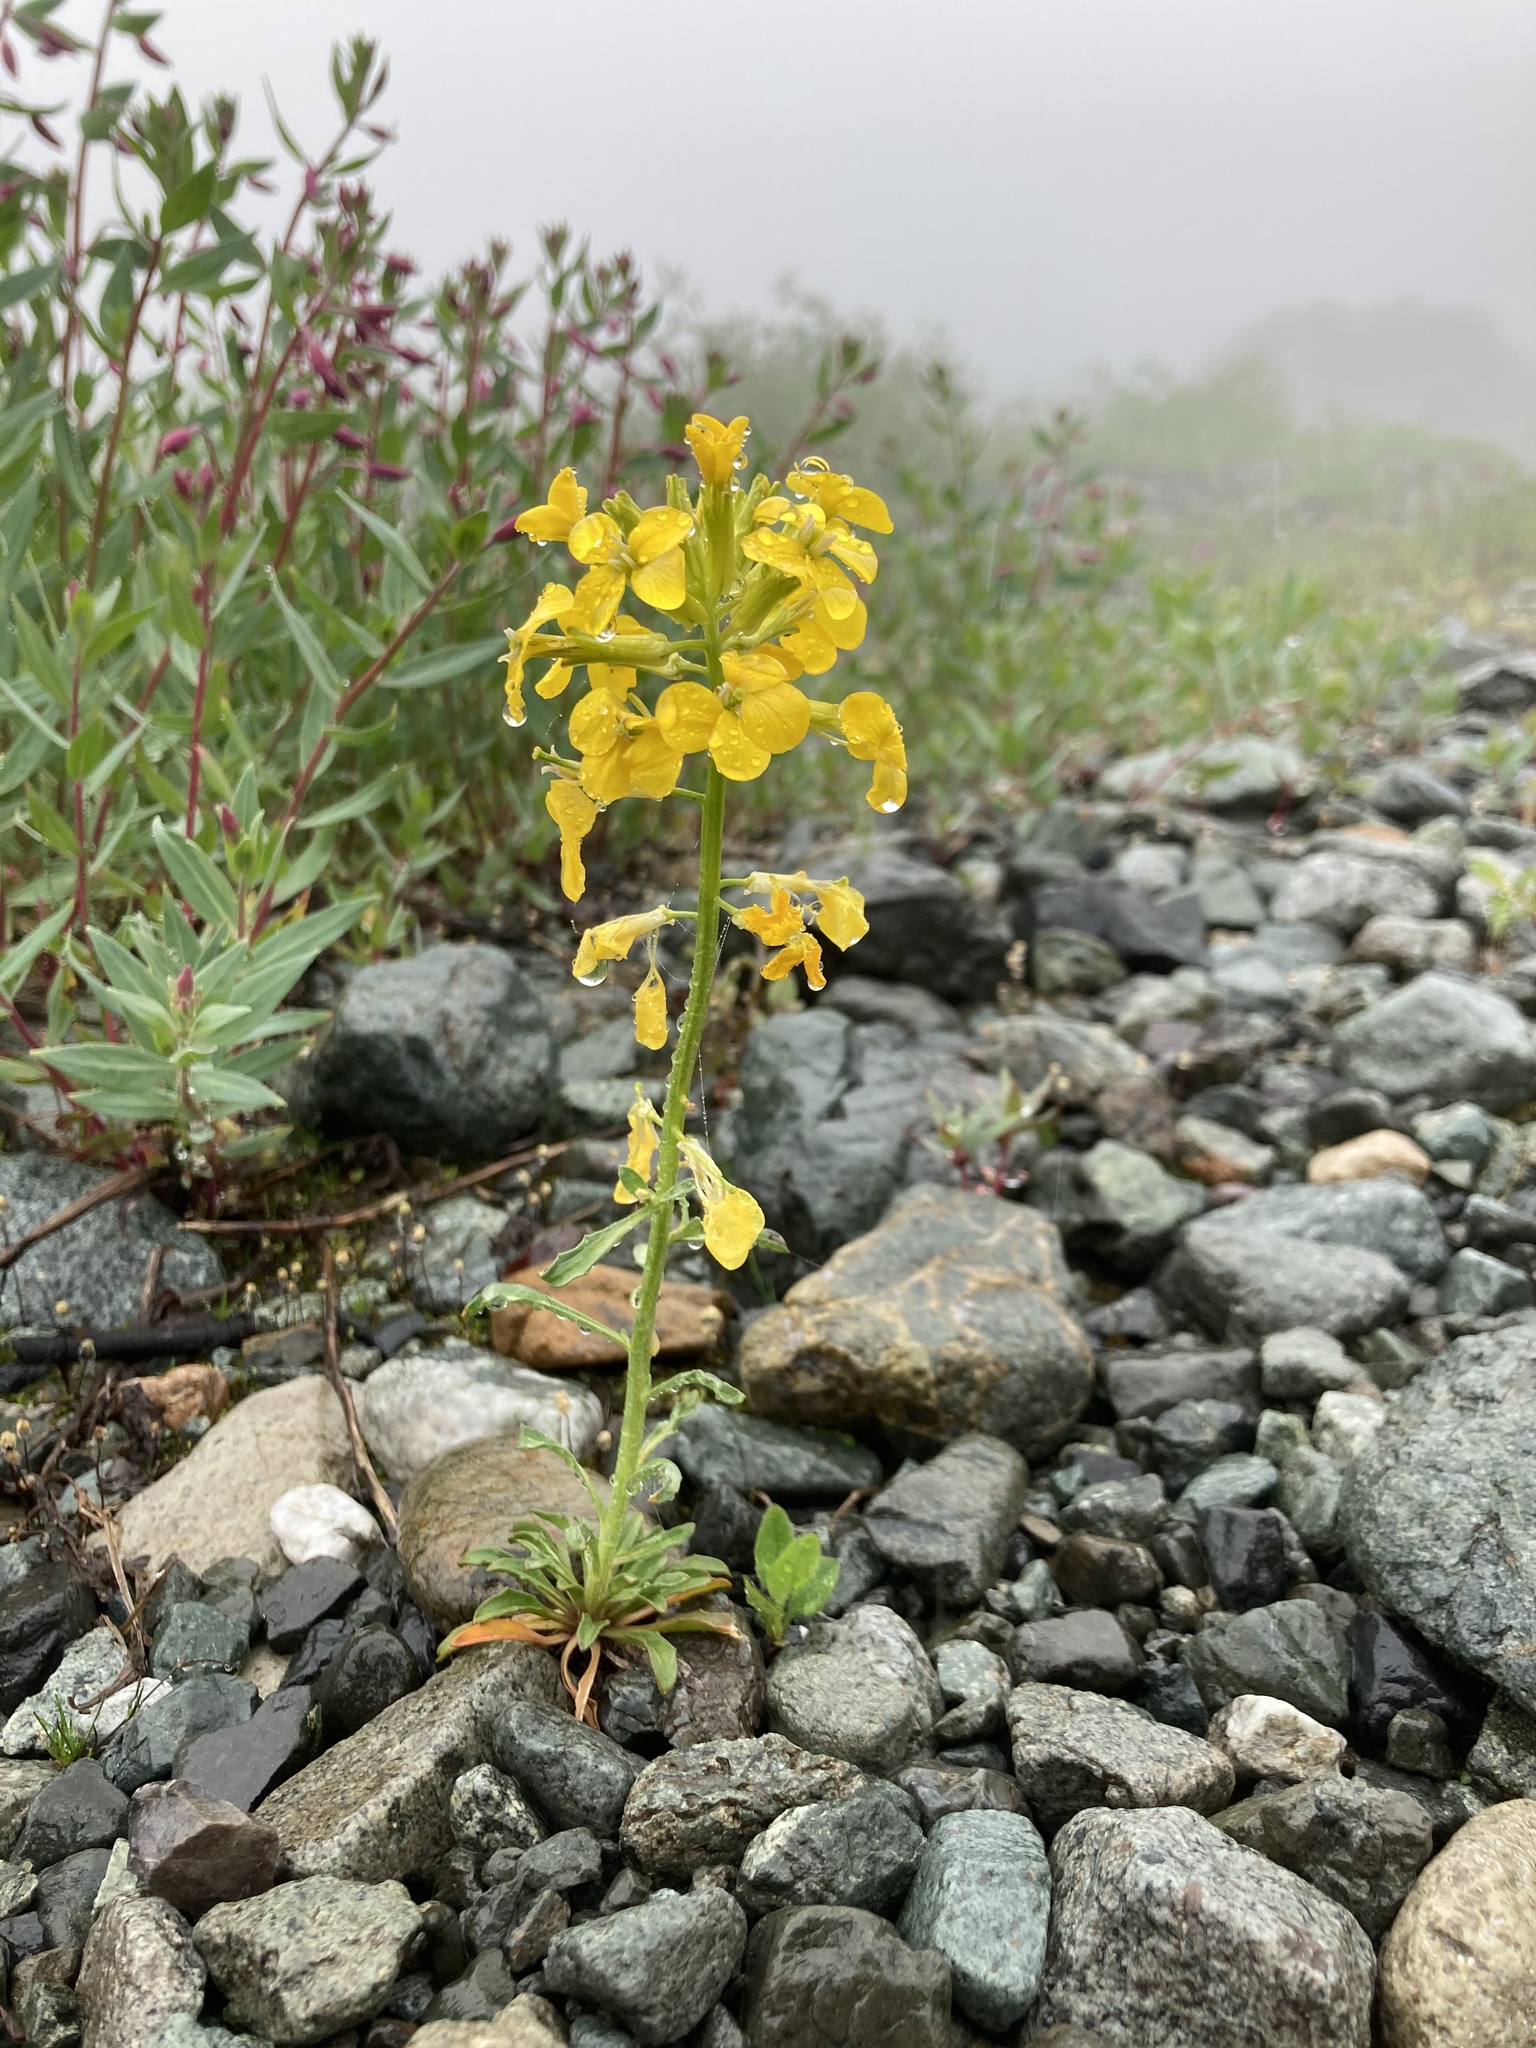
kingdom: Plantae
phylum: Tracheophyta
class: Magnoliopsida
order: Brassicales
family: Brassicaceae
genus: Erysimum
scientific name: Erysimum arenicola
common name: Cascade wallflower
